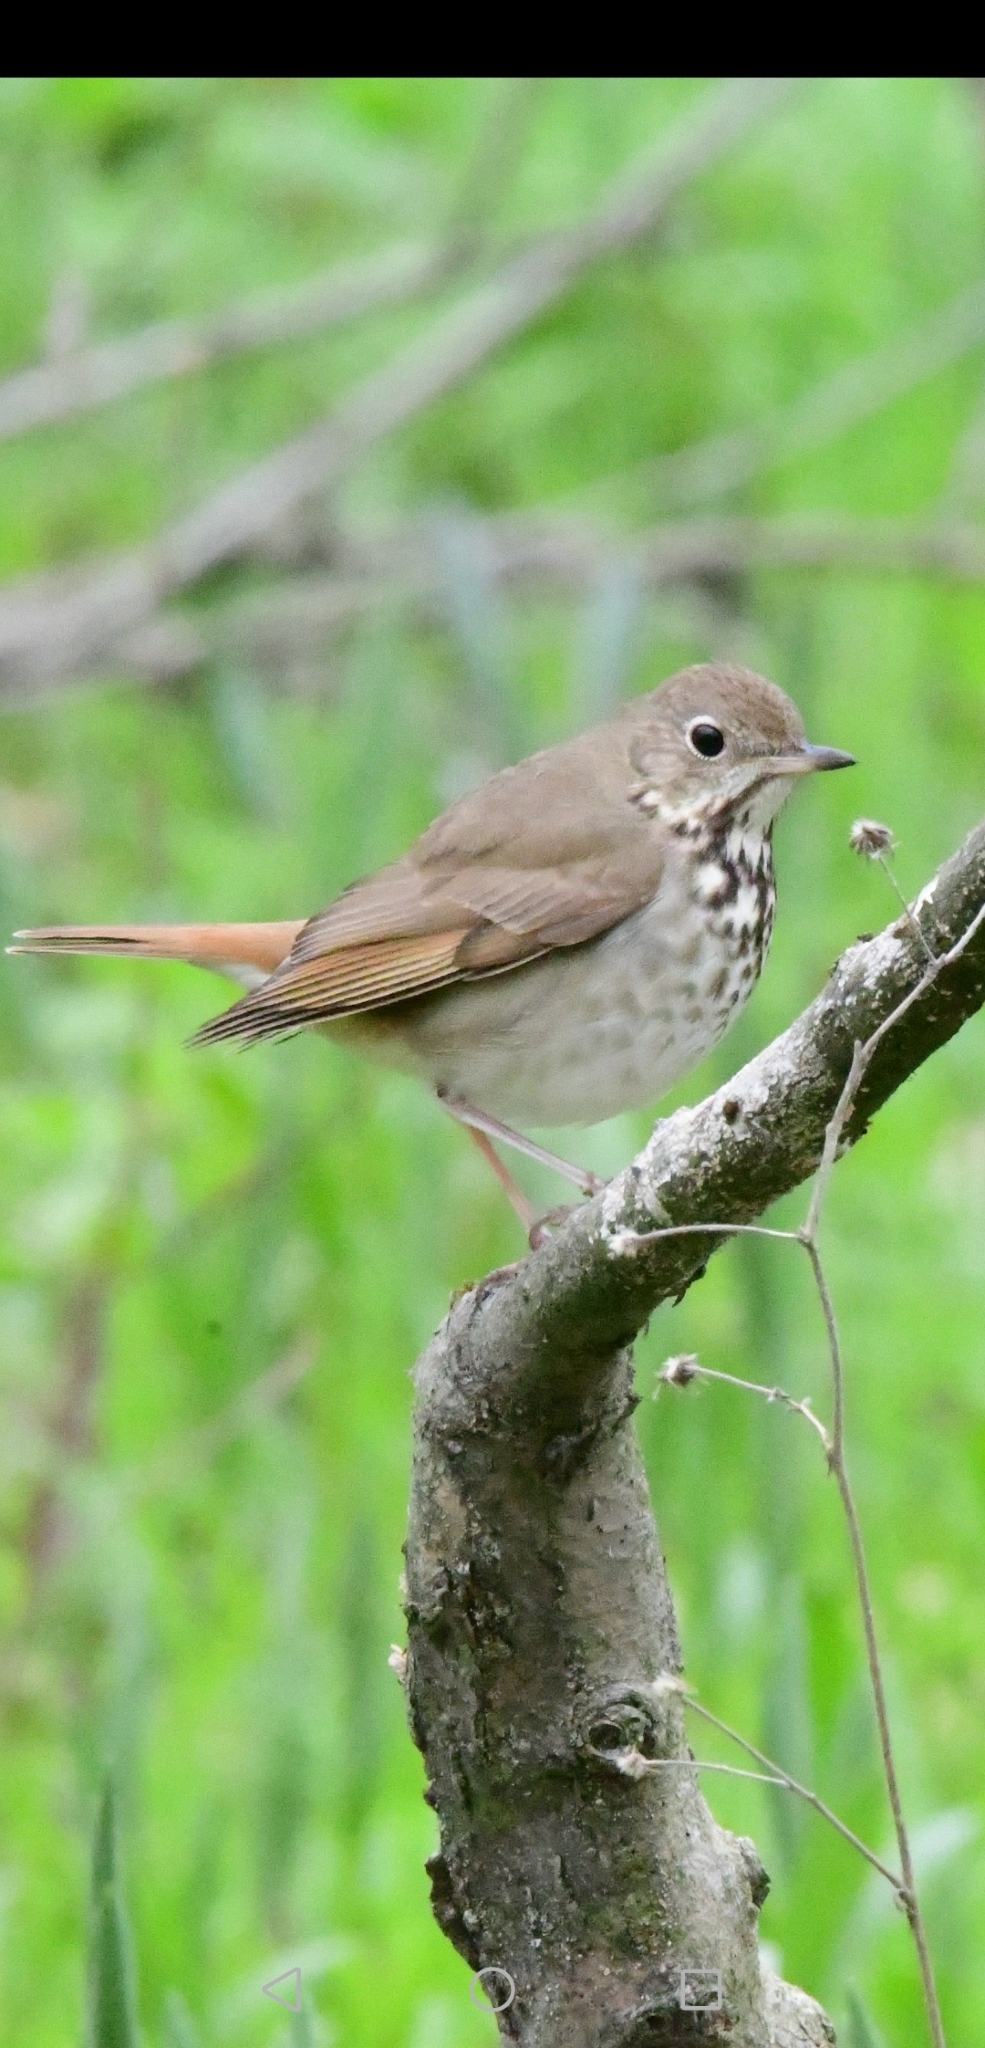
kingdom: Animalia
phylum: Chordata
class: Aves
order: Passeriformes
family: Turdidae
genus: Catharus
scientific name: Catharus guttatus
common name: Hermit thrush
